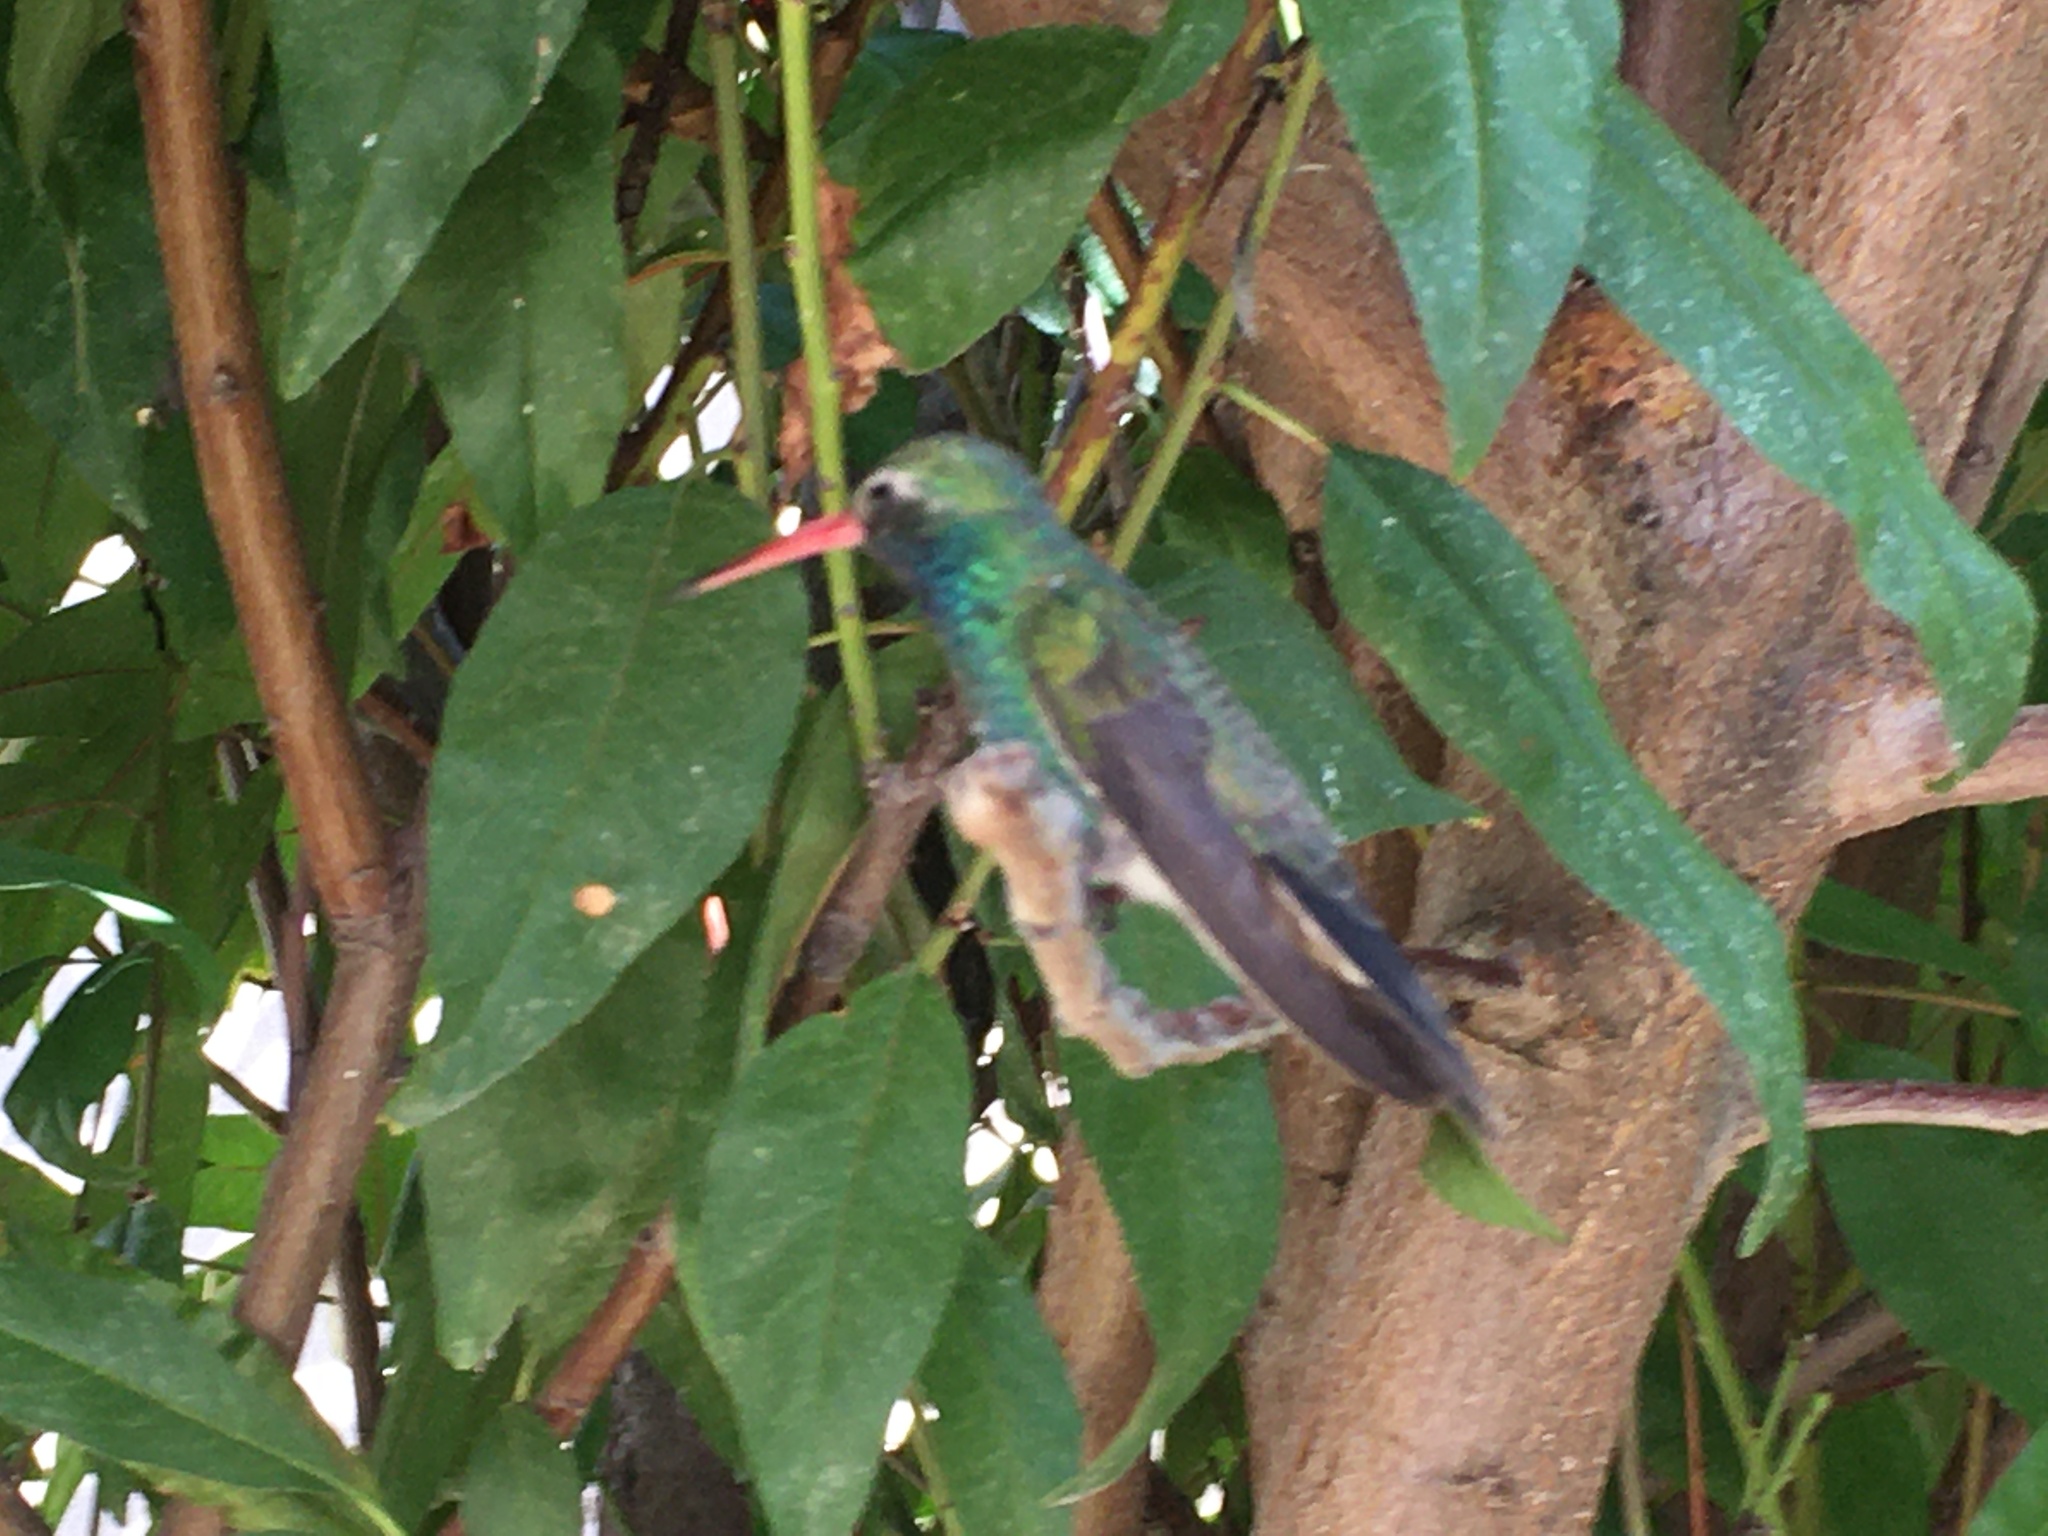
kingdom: Animalia
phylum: Chordata
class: Aves
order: Apodiformes
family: Trochilidae
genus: Cynanthus
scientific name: Cynanthus latirostris
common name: Broad-billed hummingbird
